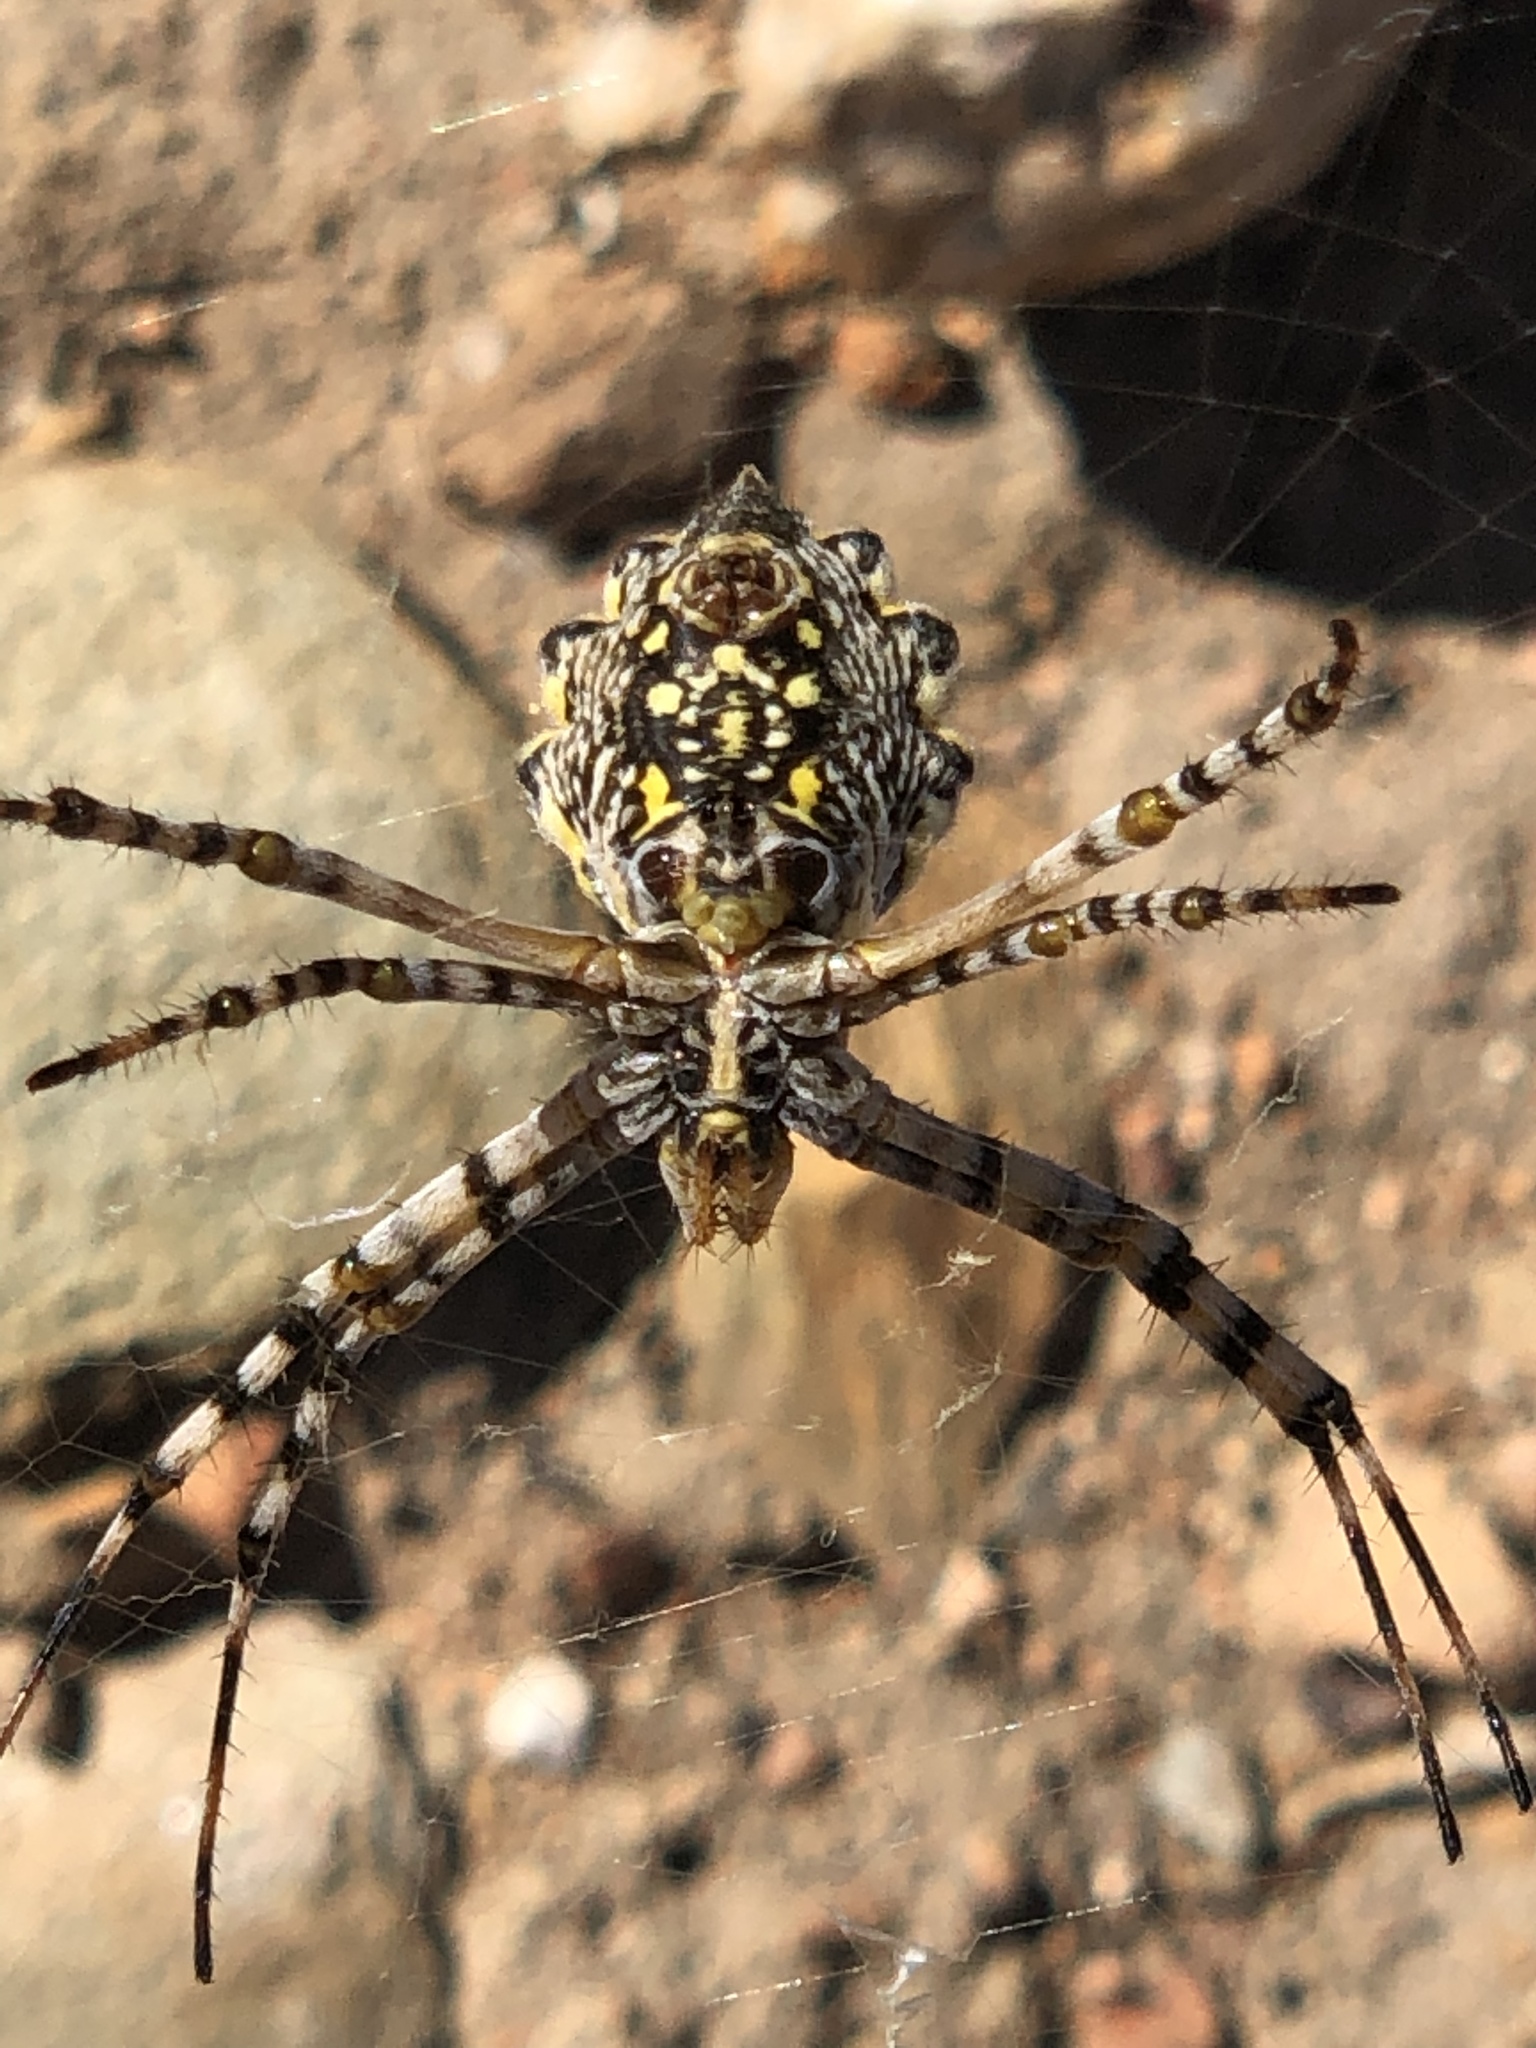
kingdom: Animalia
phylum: Arthropoda
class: Arachnida
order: Araneae
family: Araneidae
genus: Argiope
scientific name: Argiope australis
